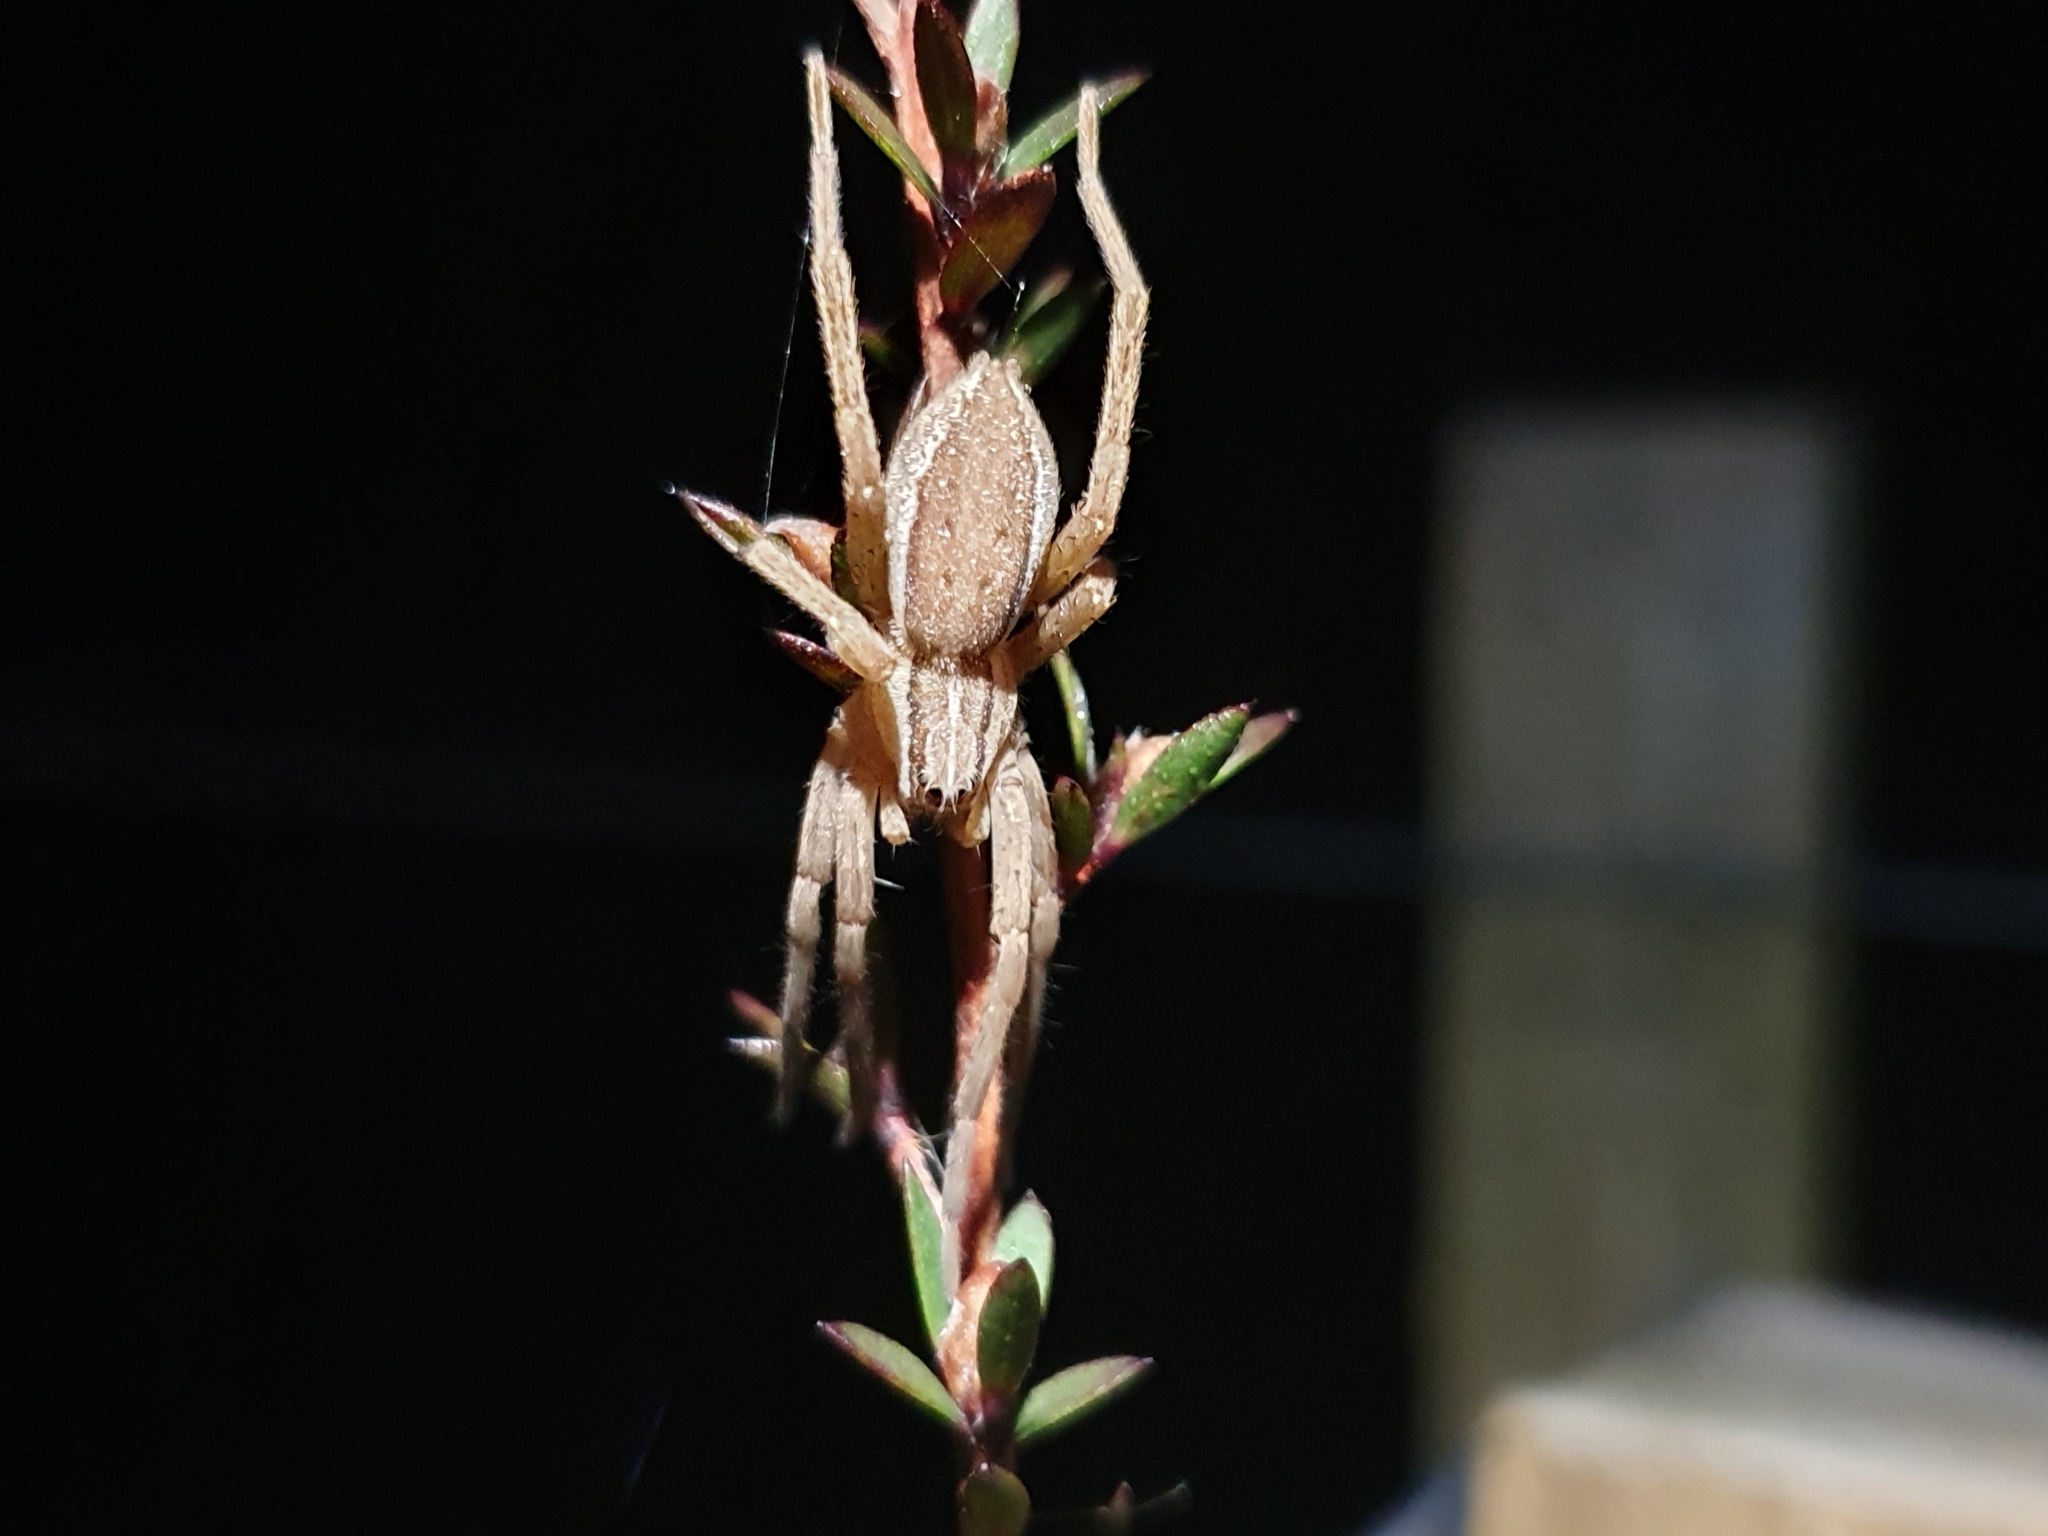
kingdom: Animalia
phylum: Arthropoda
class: Arachnida
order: Araneae
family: Pisauridae
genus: Dolomedes
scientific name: Dolomedes minor
